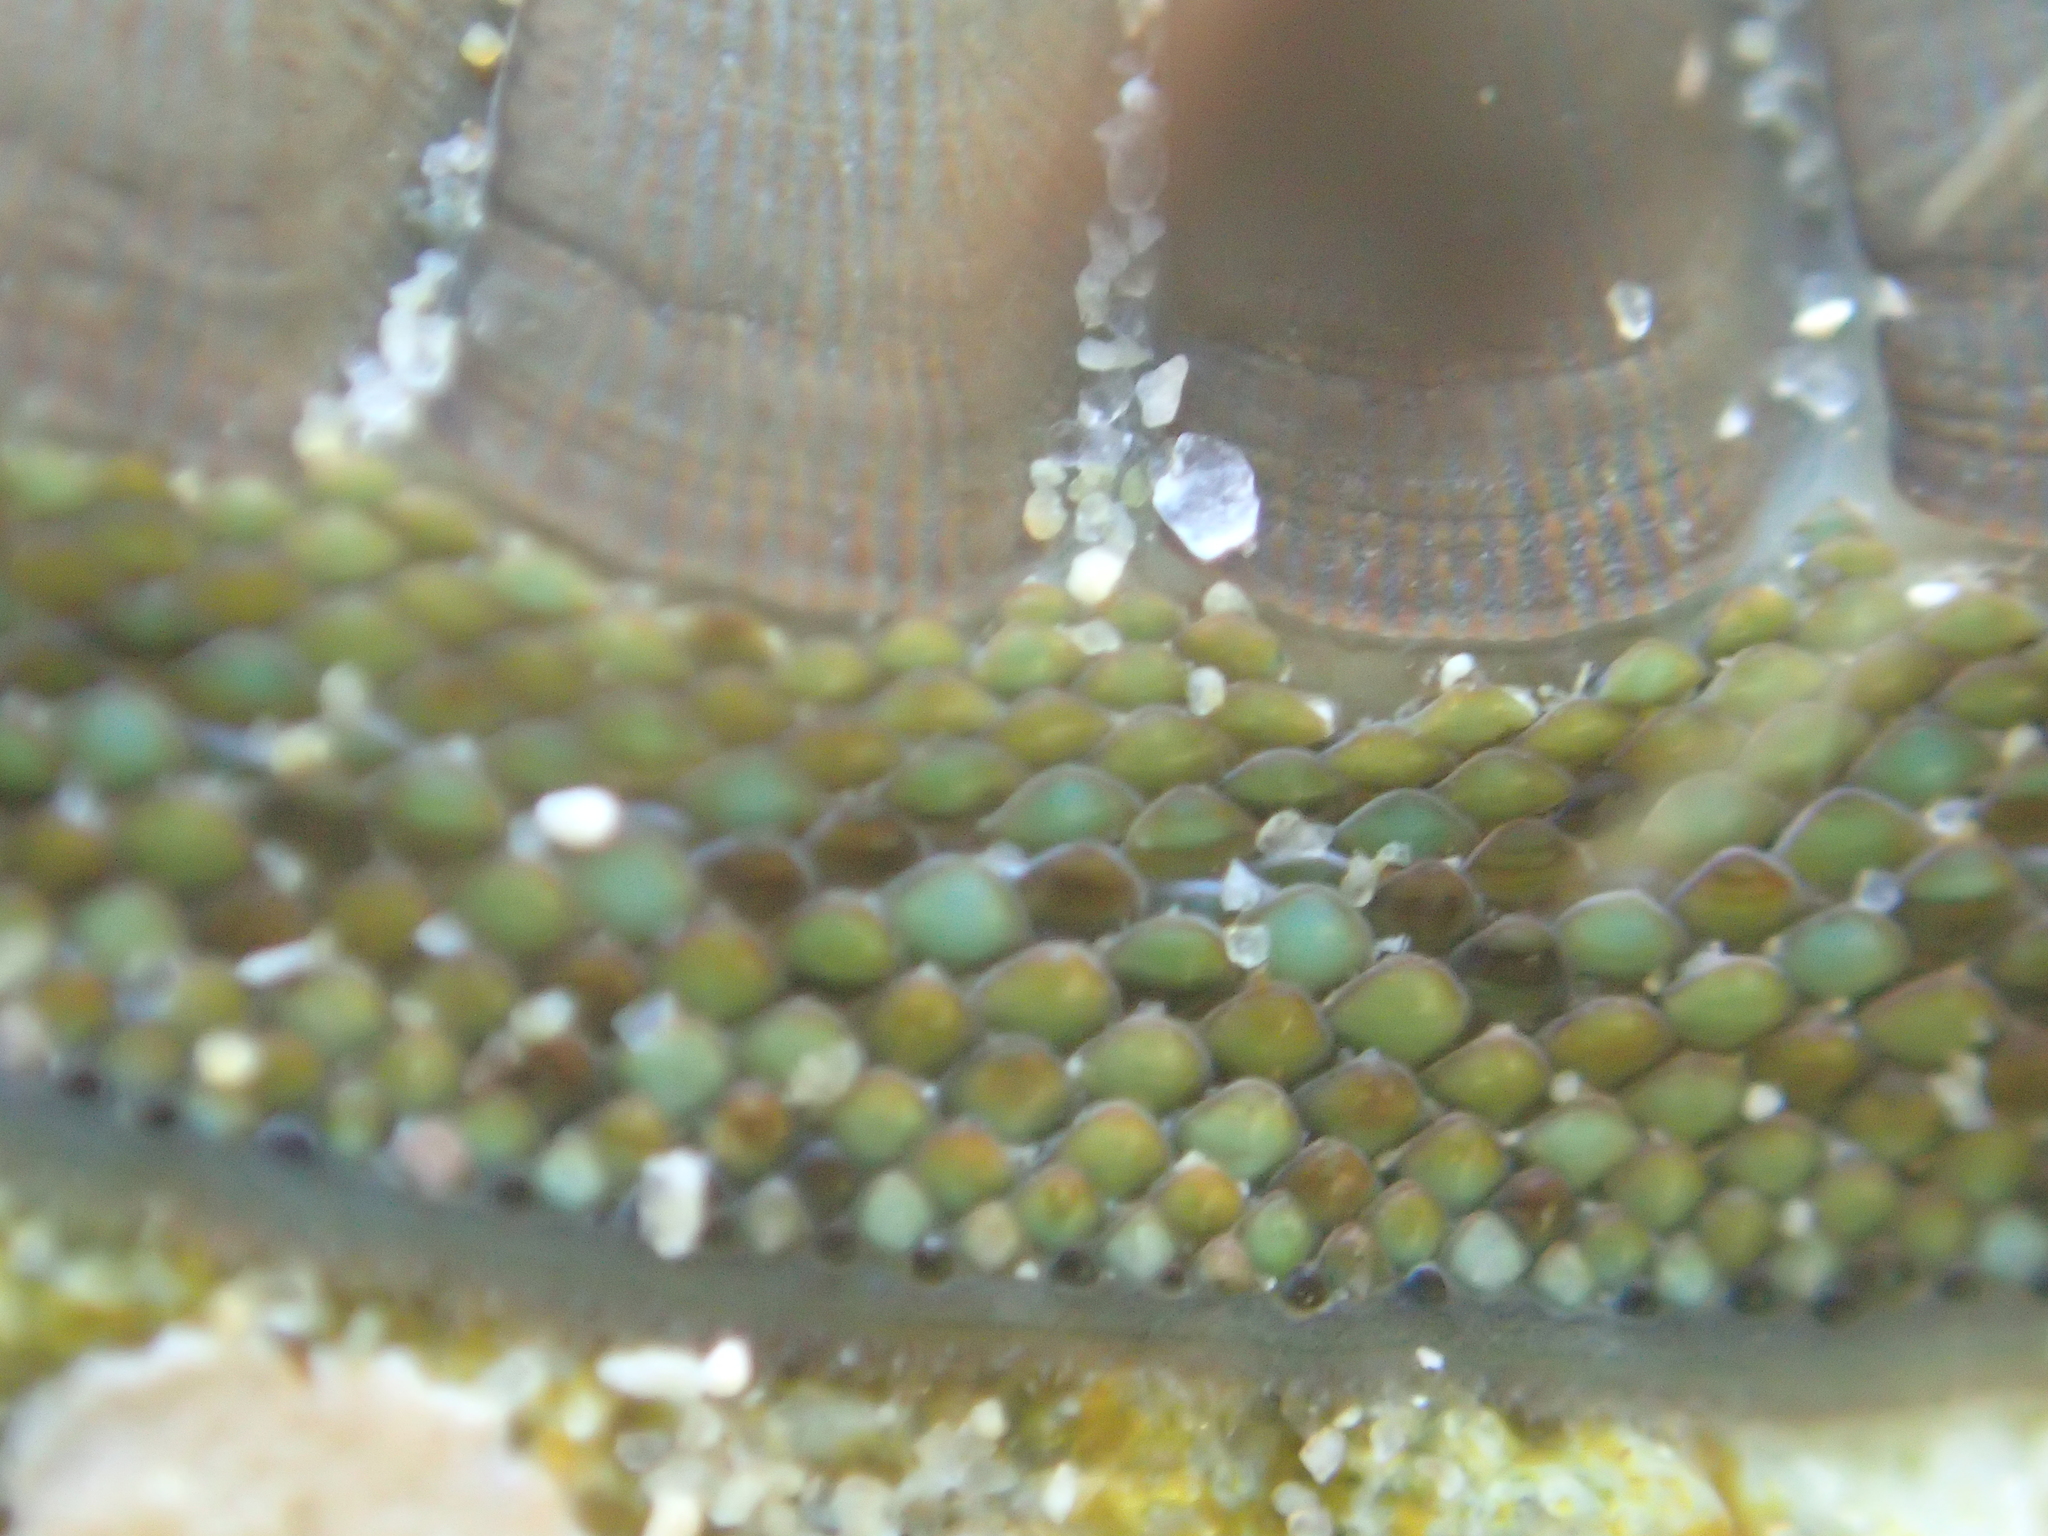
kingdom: Animalia
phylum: Mollusca
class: Polyplacophora
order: Chitonida
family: Chitonidae
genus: Chiton
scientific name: Chiton glaucus
